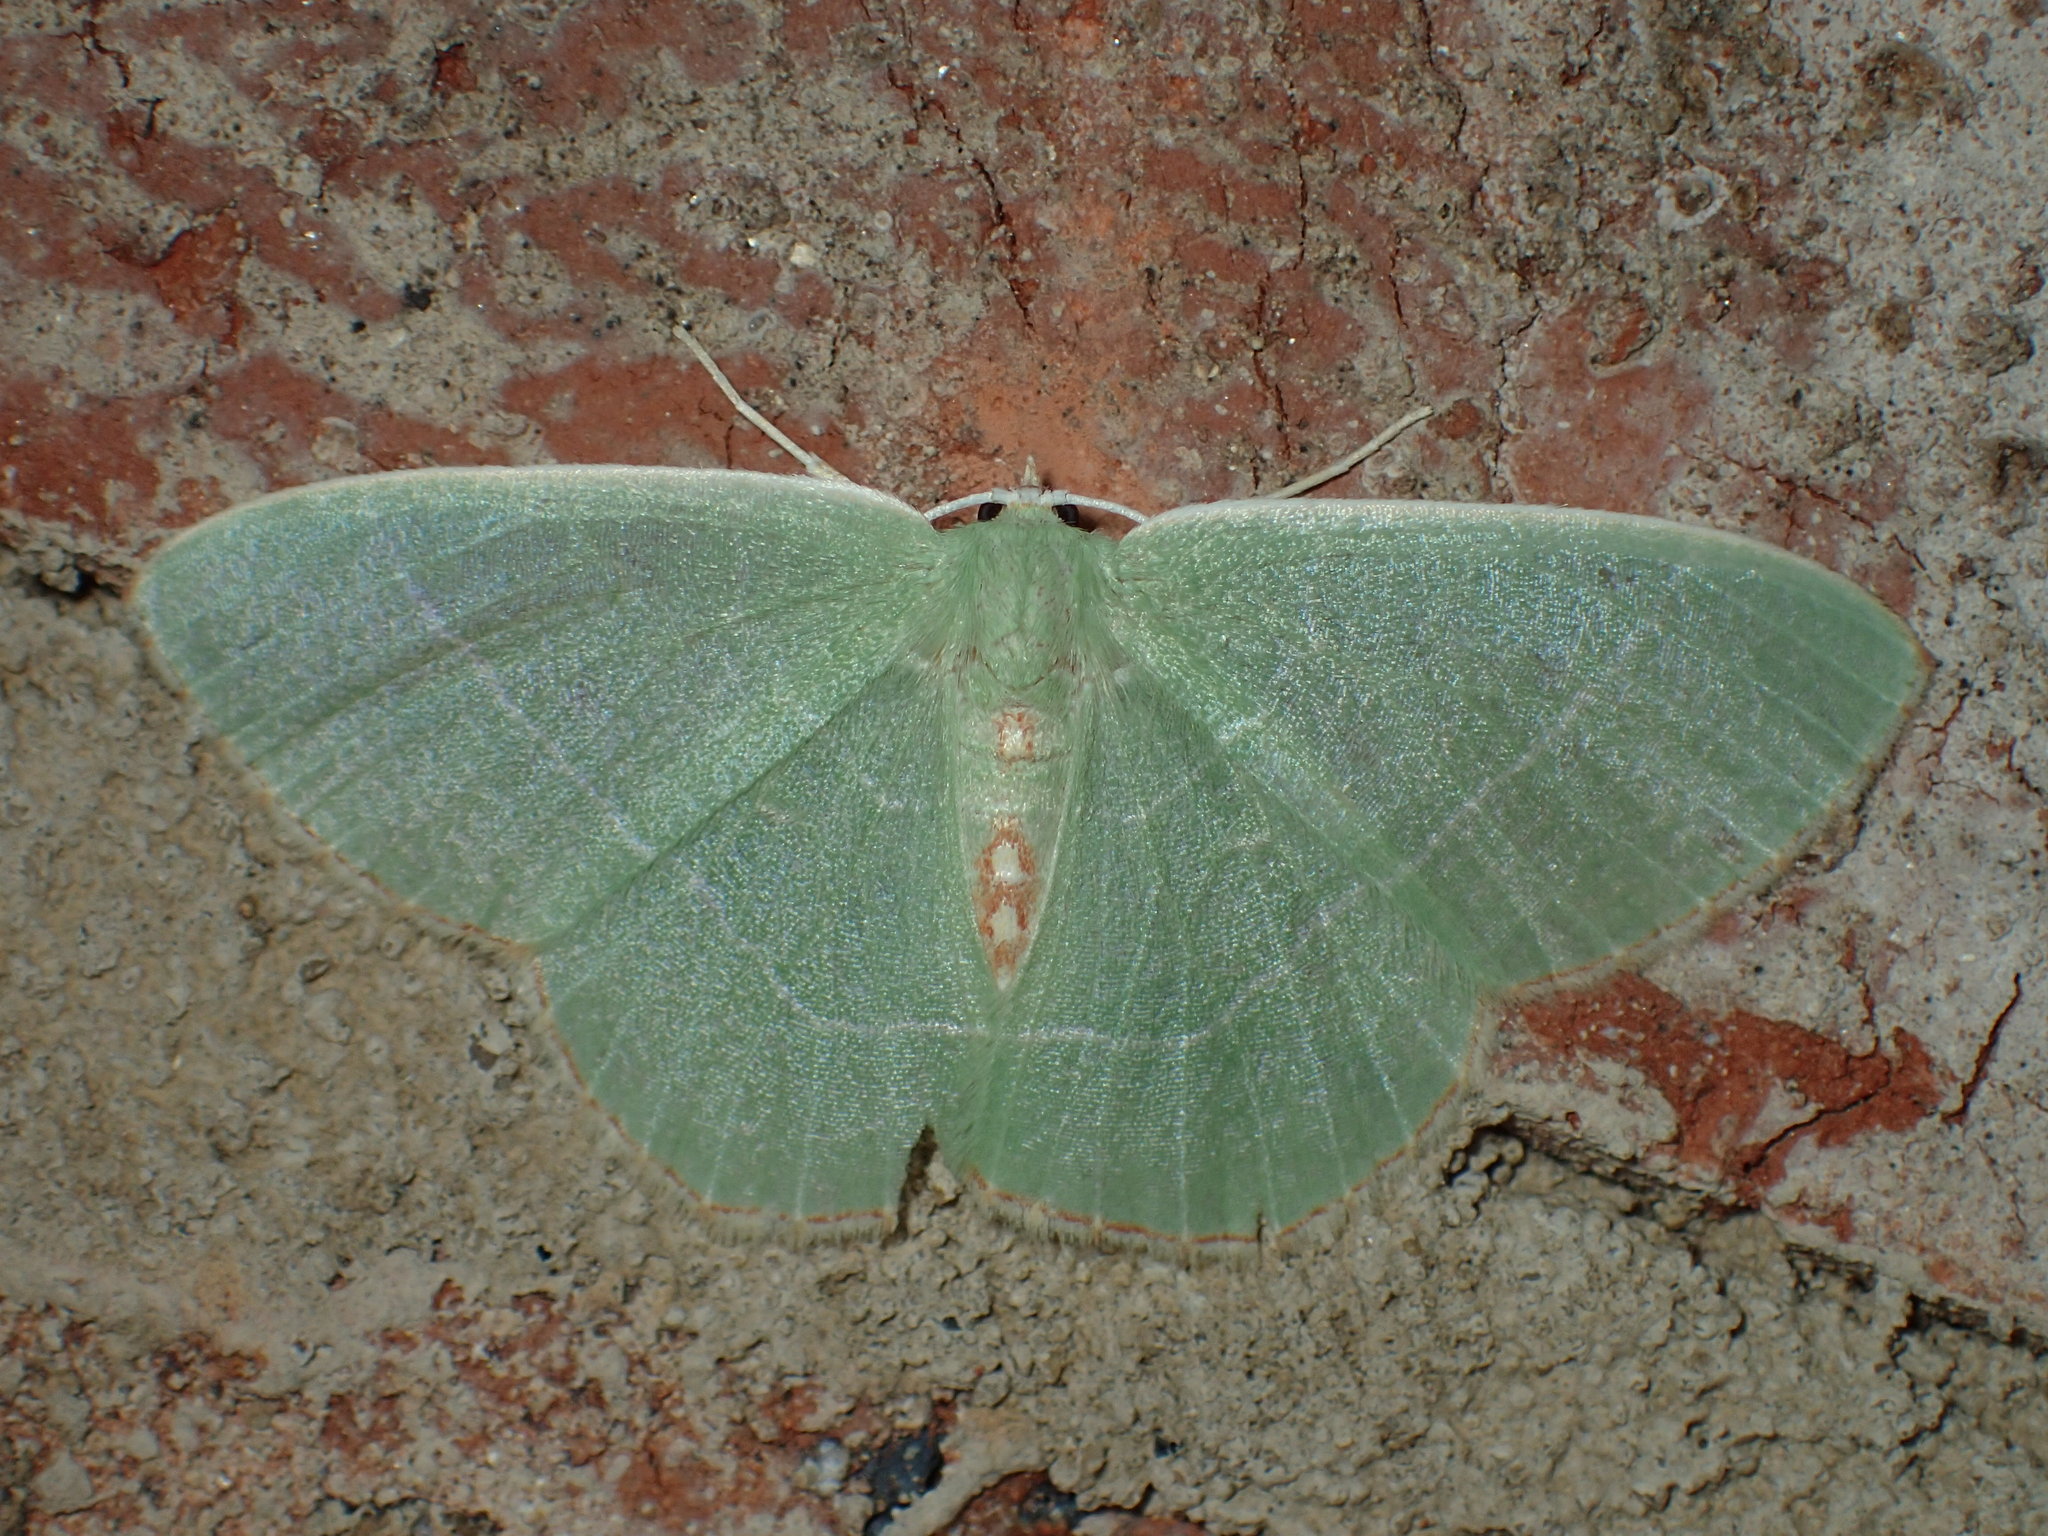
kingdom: Animalia
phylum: Arthropoda
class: Insecta
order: Lepidoptera
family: Geometridae
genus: Nemoria
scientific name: Nemoria bistriaria
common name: Red-fringed emerald
